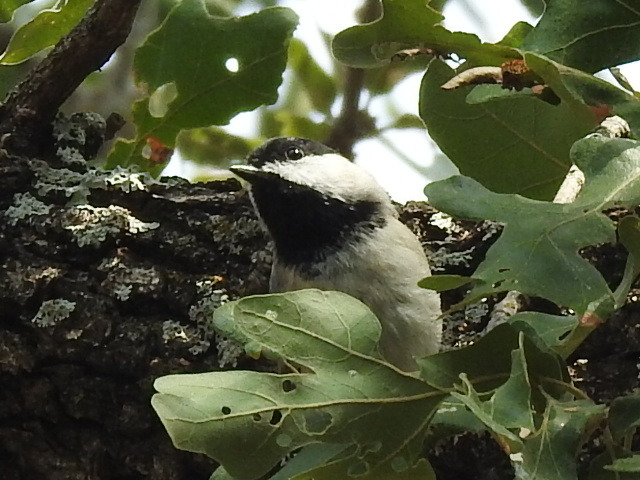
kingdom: Animalia
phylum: Chordata
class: Aves
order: Passeriformes
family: Paridae
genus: Poecile
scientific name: Poecile carolinensis
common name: Carolina chickadee
